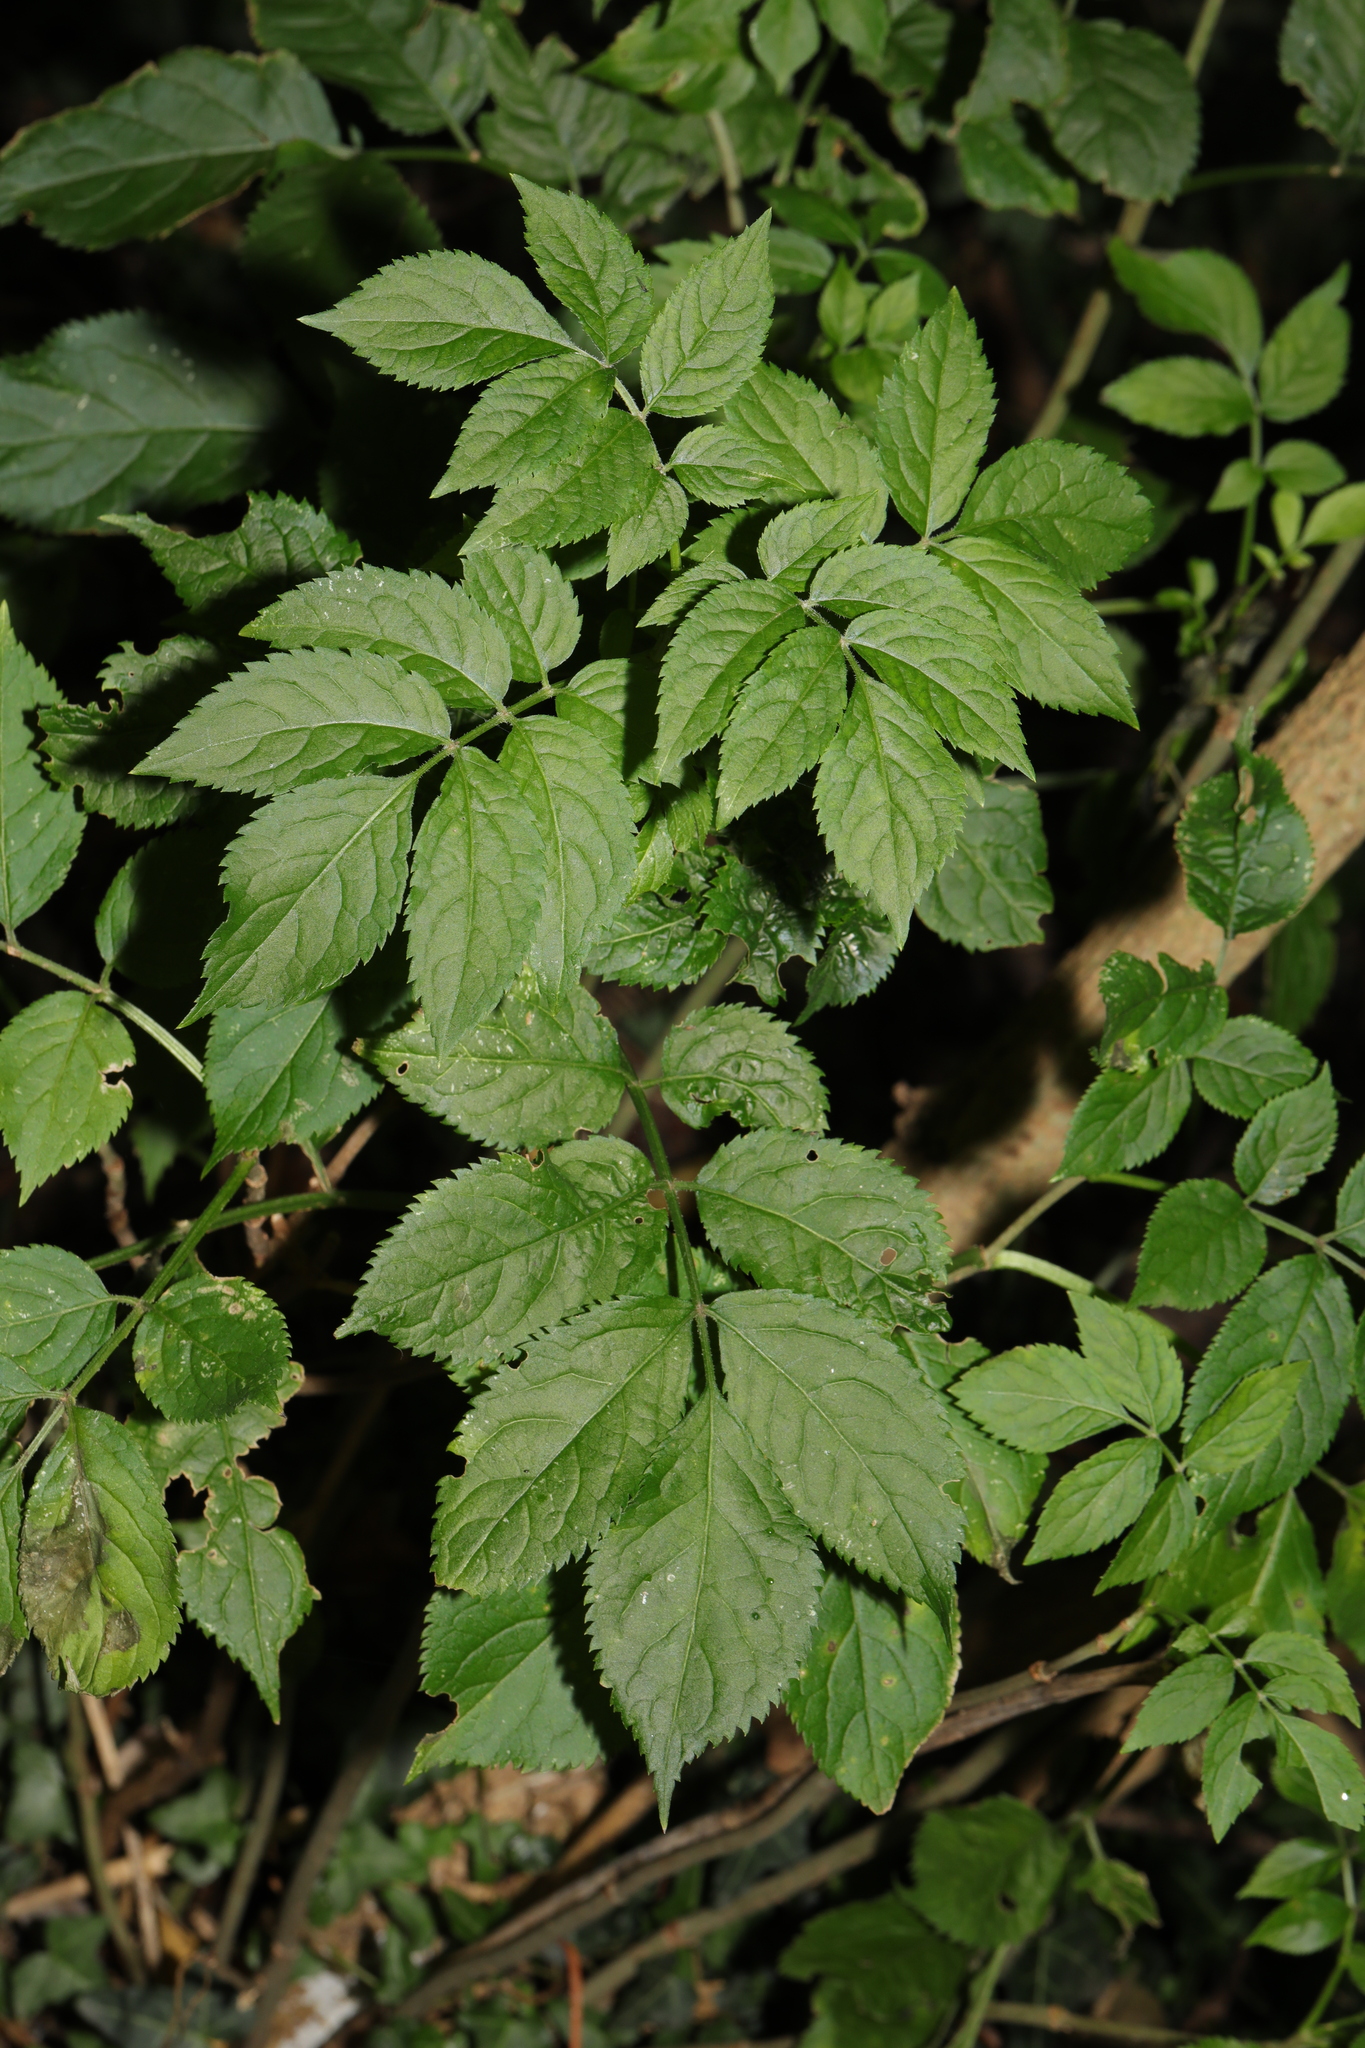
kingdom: Plantae
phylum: Tracheophyta
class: Magnoliopsida
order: Dipsacales
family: Viburnaceae
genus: Sambucus
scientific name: Sambucus nigra
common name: Elder
